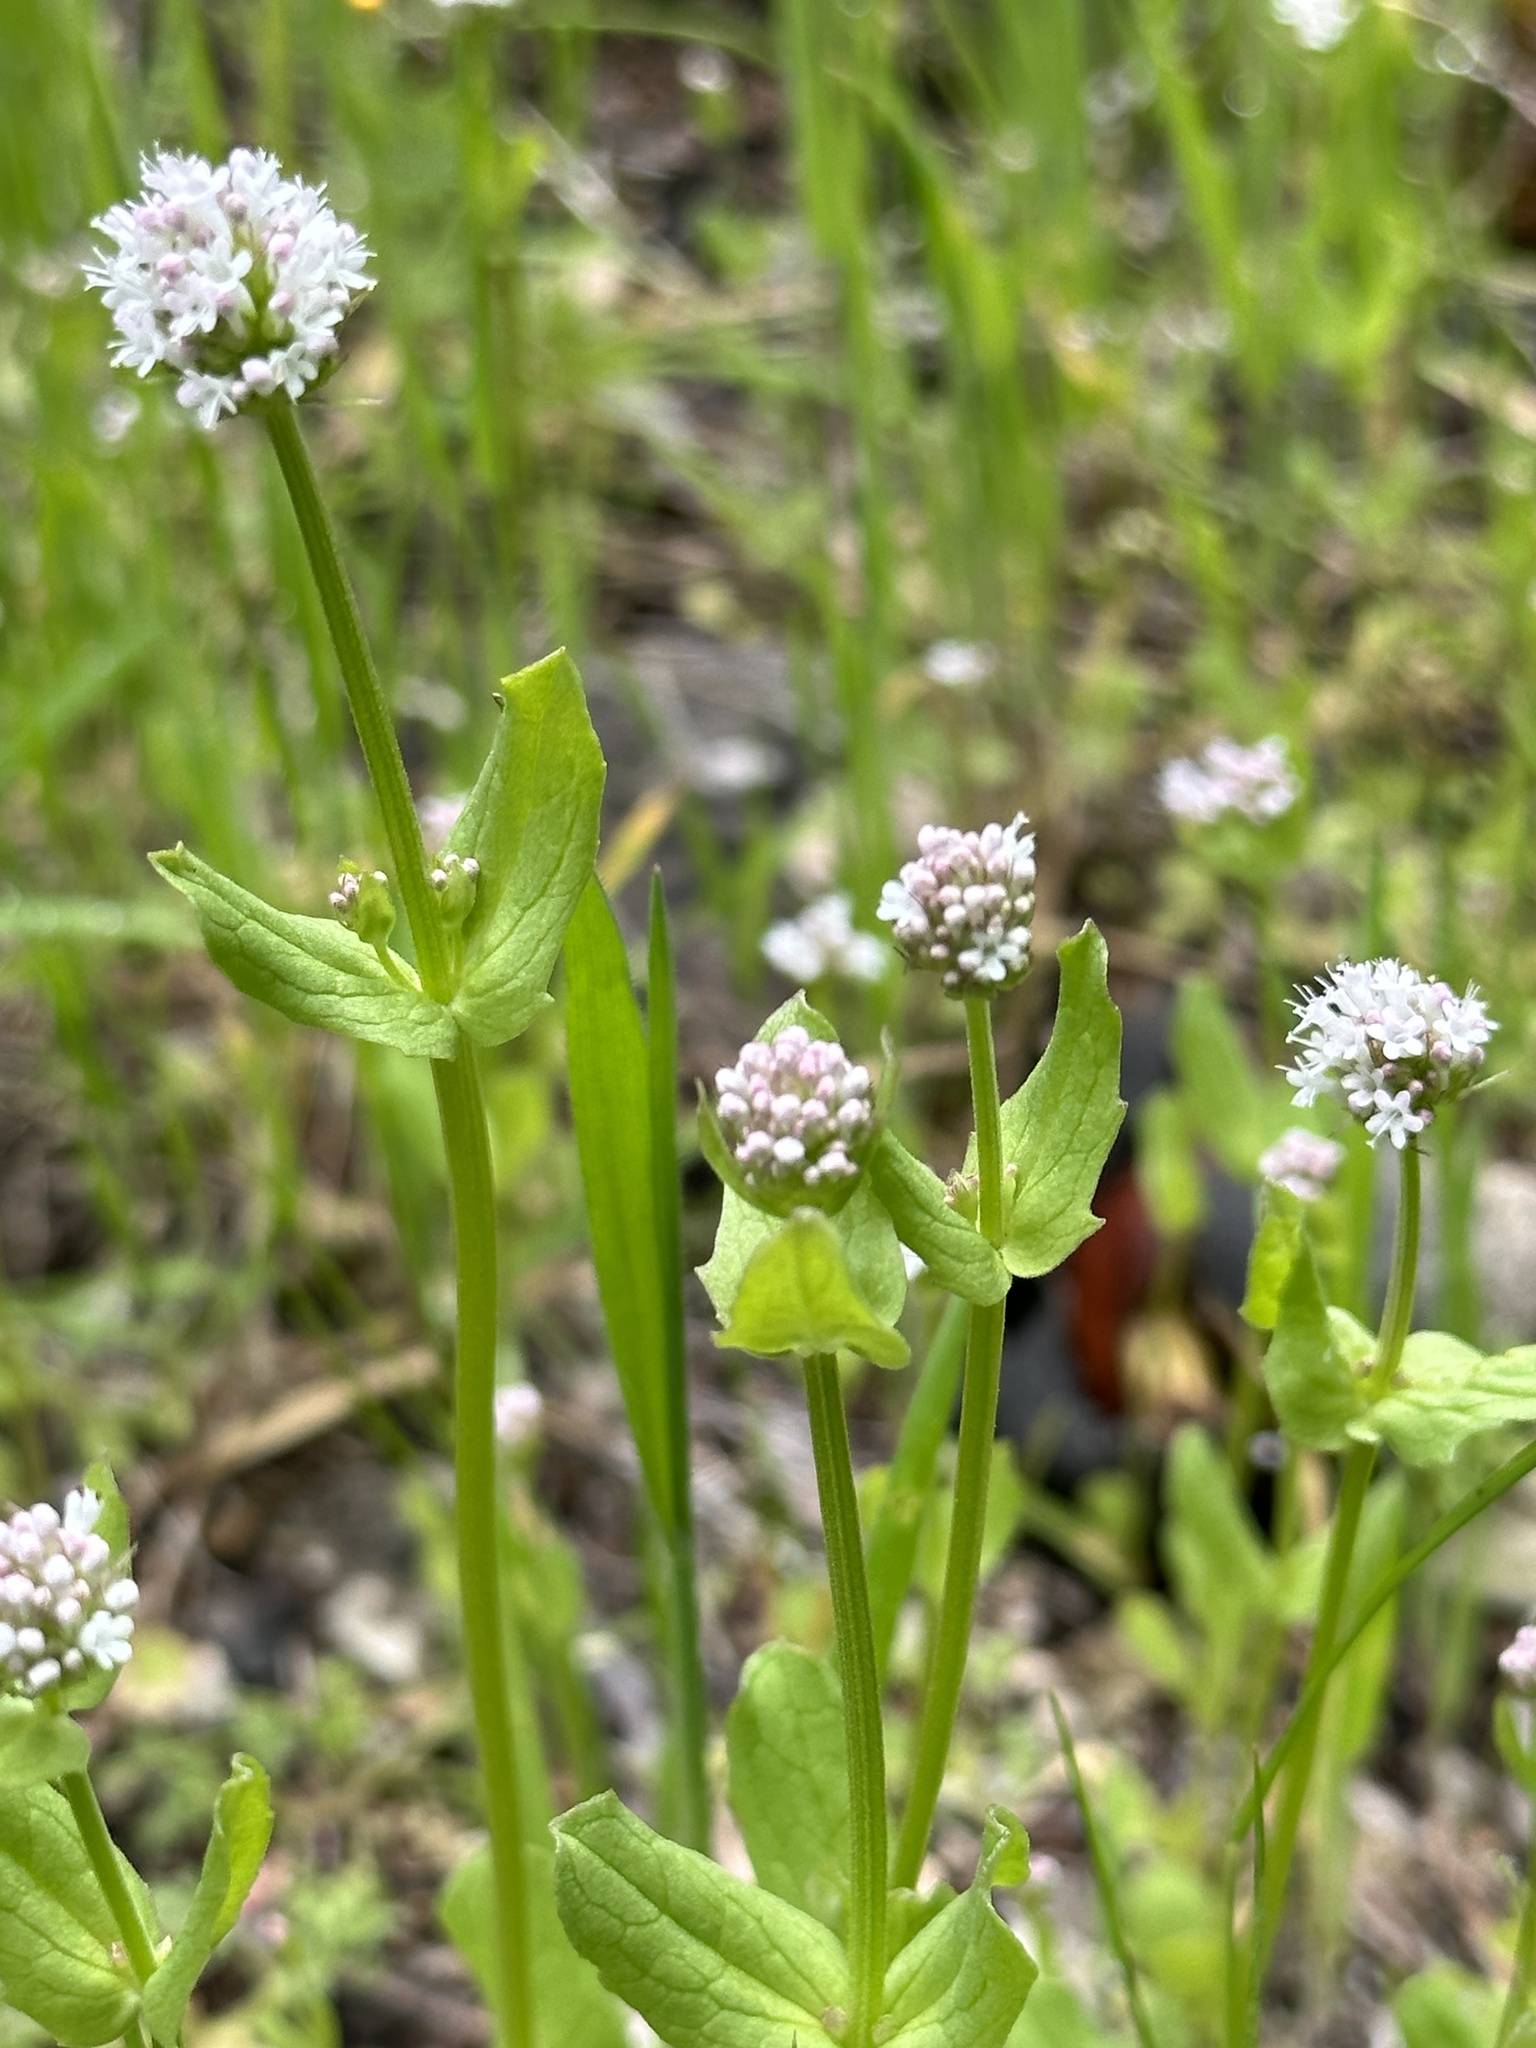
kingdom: Plantae
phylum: Tracheophyta
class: Magnoliopsida
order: Dipsacales
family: Caprifoliaceae
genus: Plectritis
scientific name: Plectritis macroptera
